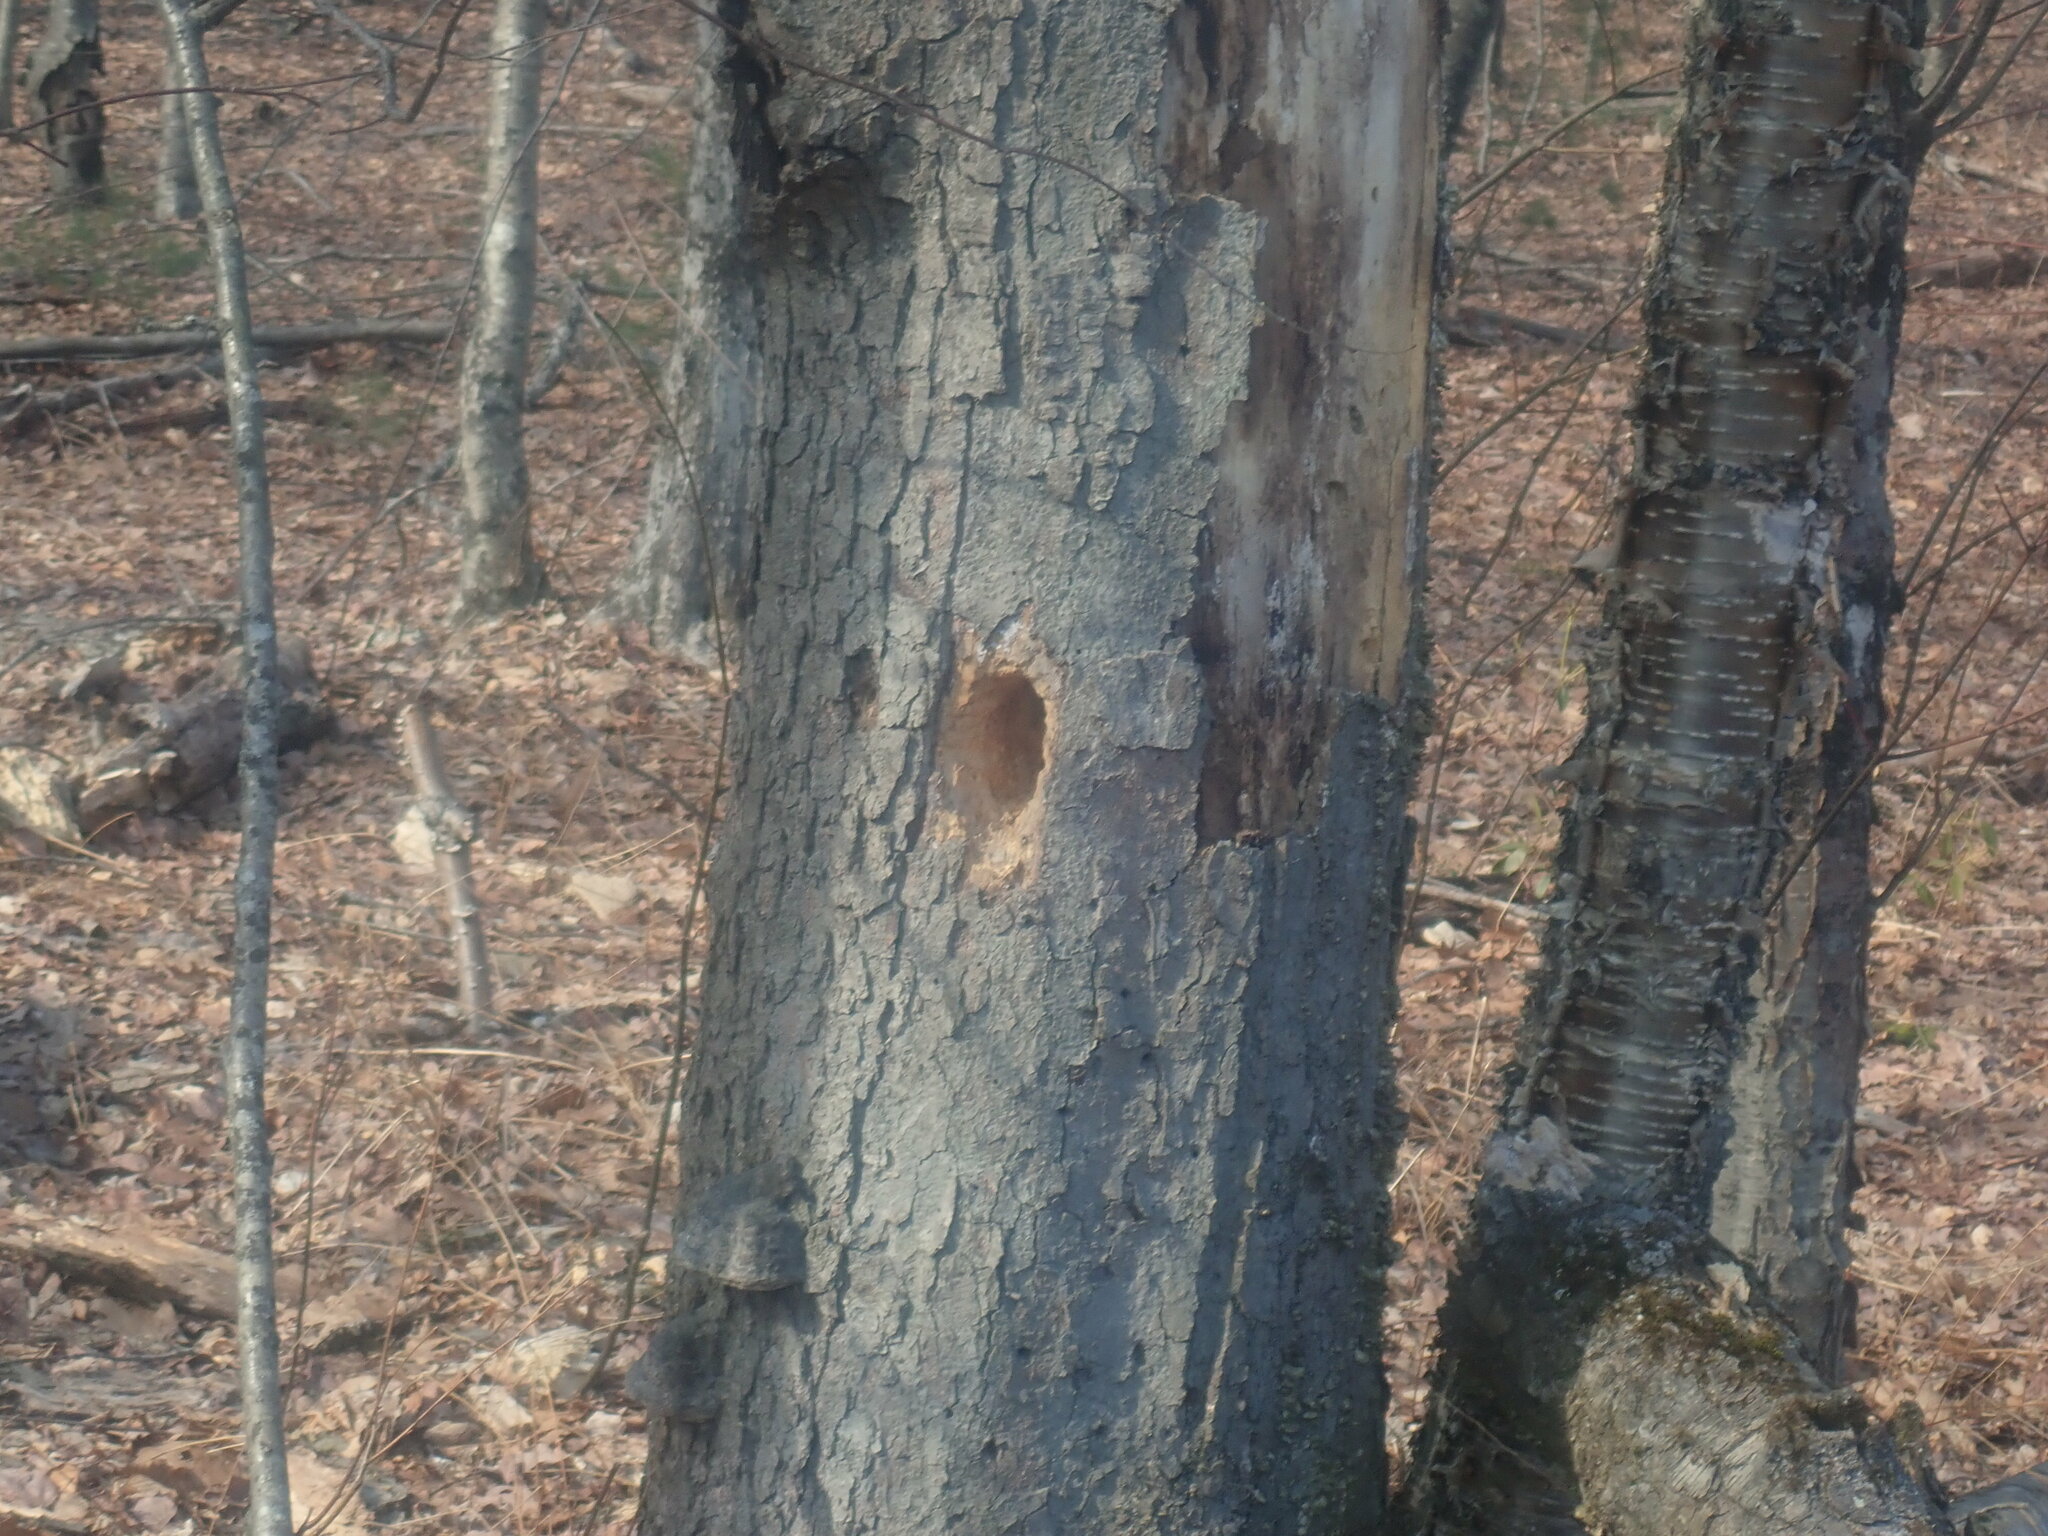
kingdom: Animalia
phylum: Chordata
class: Aves
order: Piciformes
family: Picidae
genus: Dryocopus
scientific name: Dryocopus pileatus
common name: Pileated woodpecker
